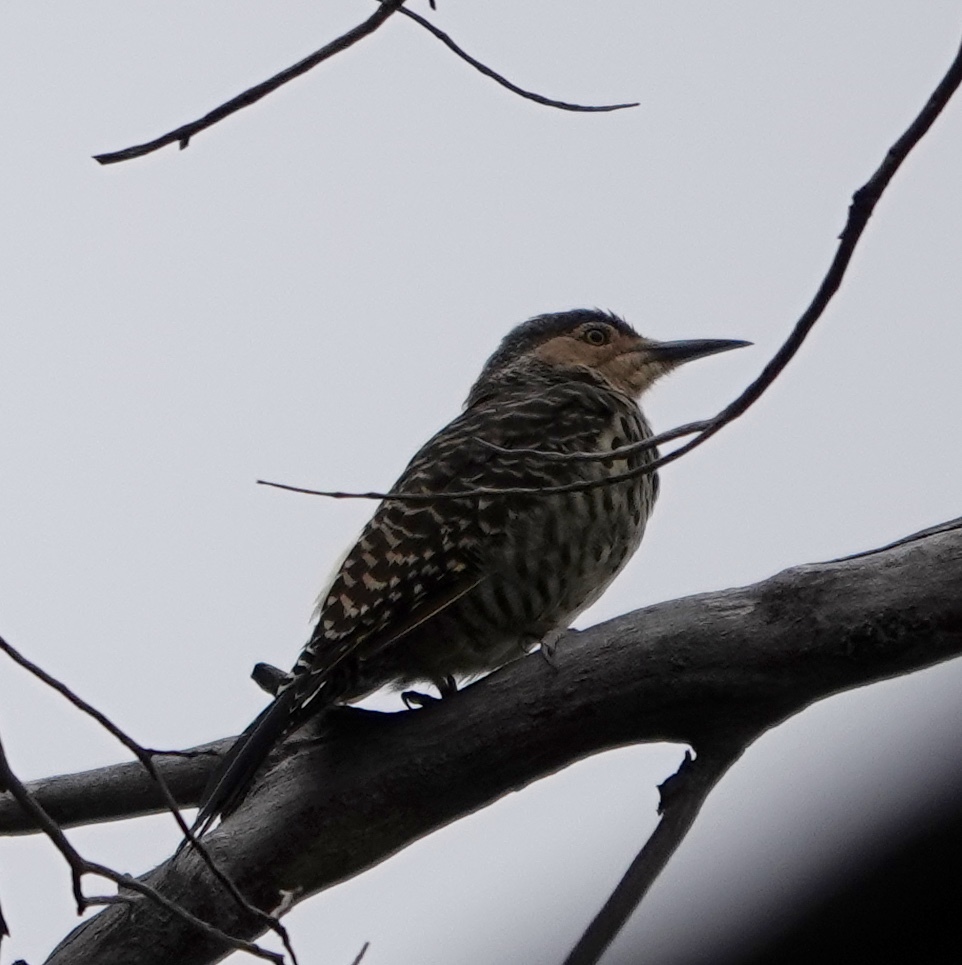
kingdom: Animalia
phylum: Chordata
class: Aves
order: Piciformes
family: Picidae
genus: Colaptes
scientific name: Colaptes pitius
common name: Chilean flicker
